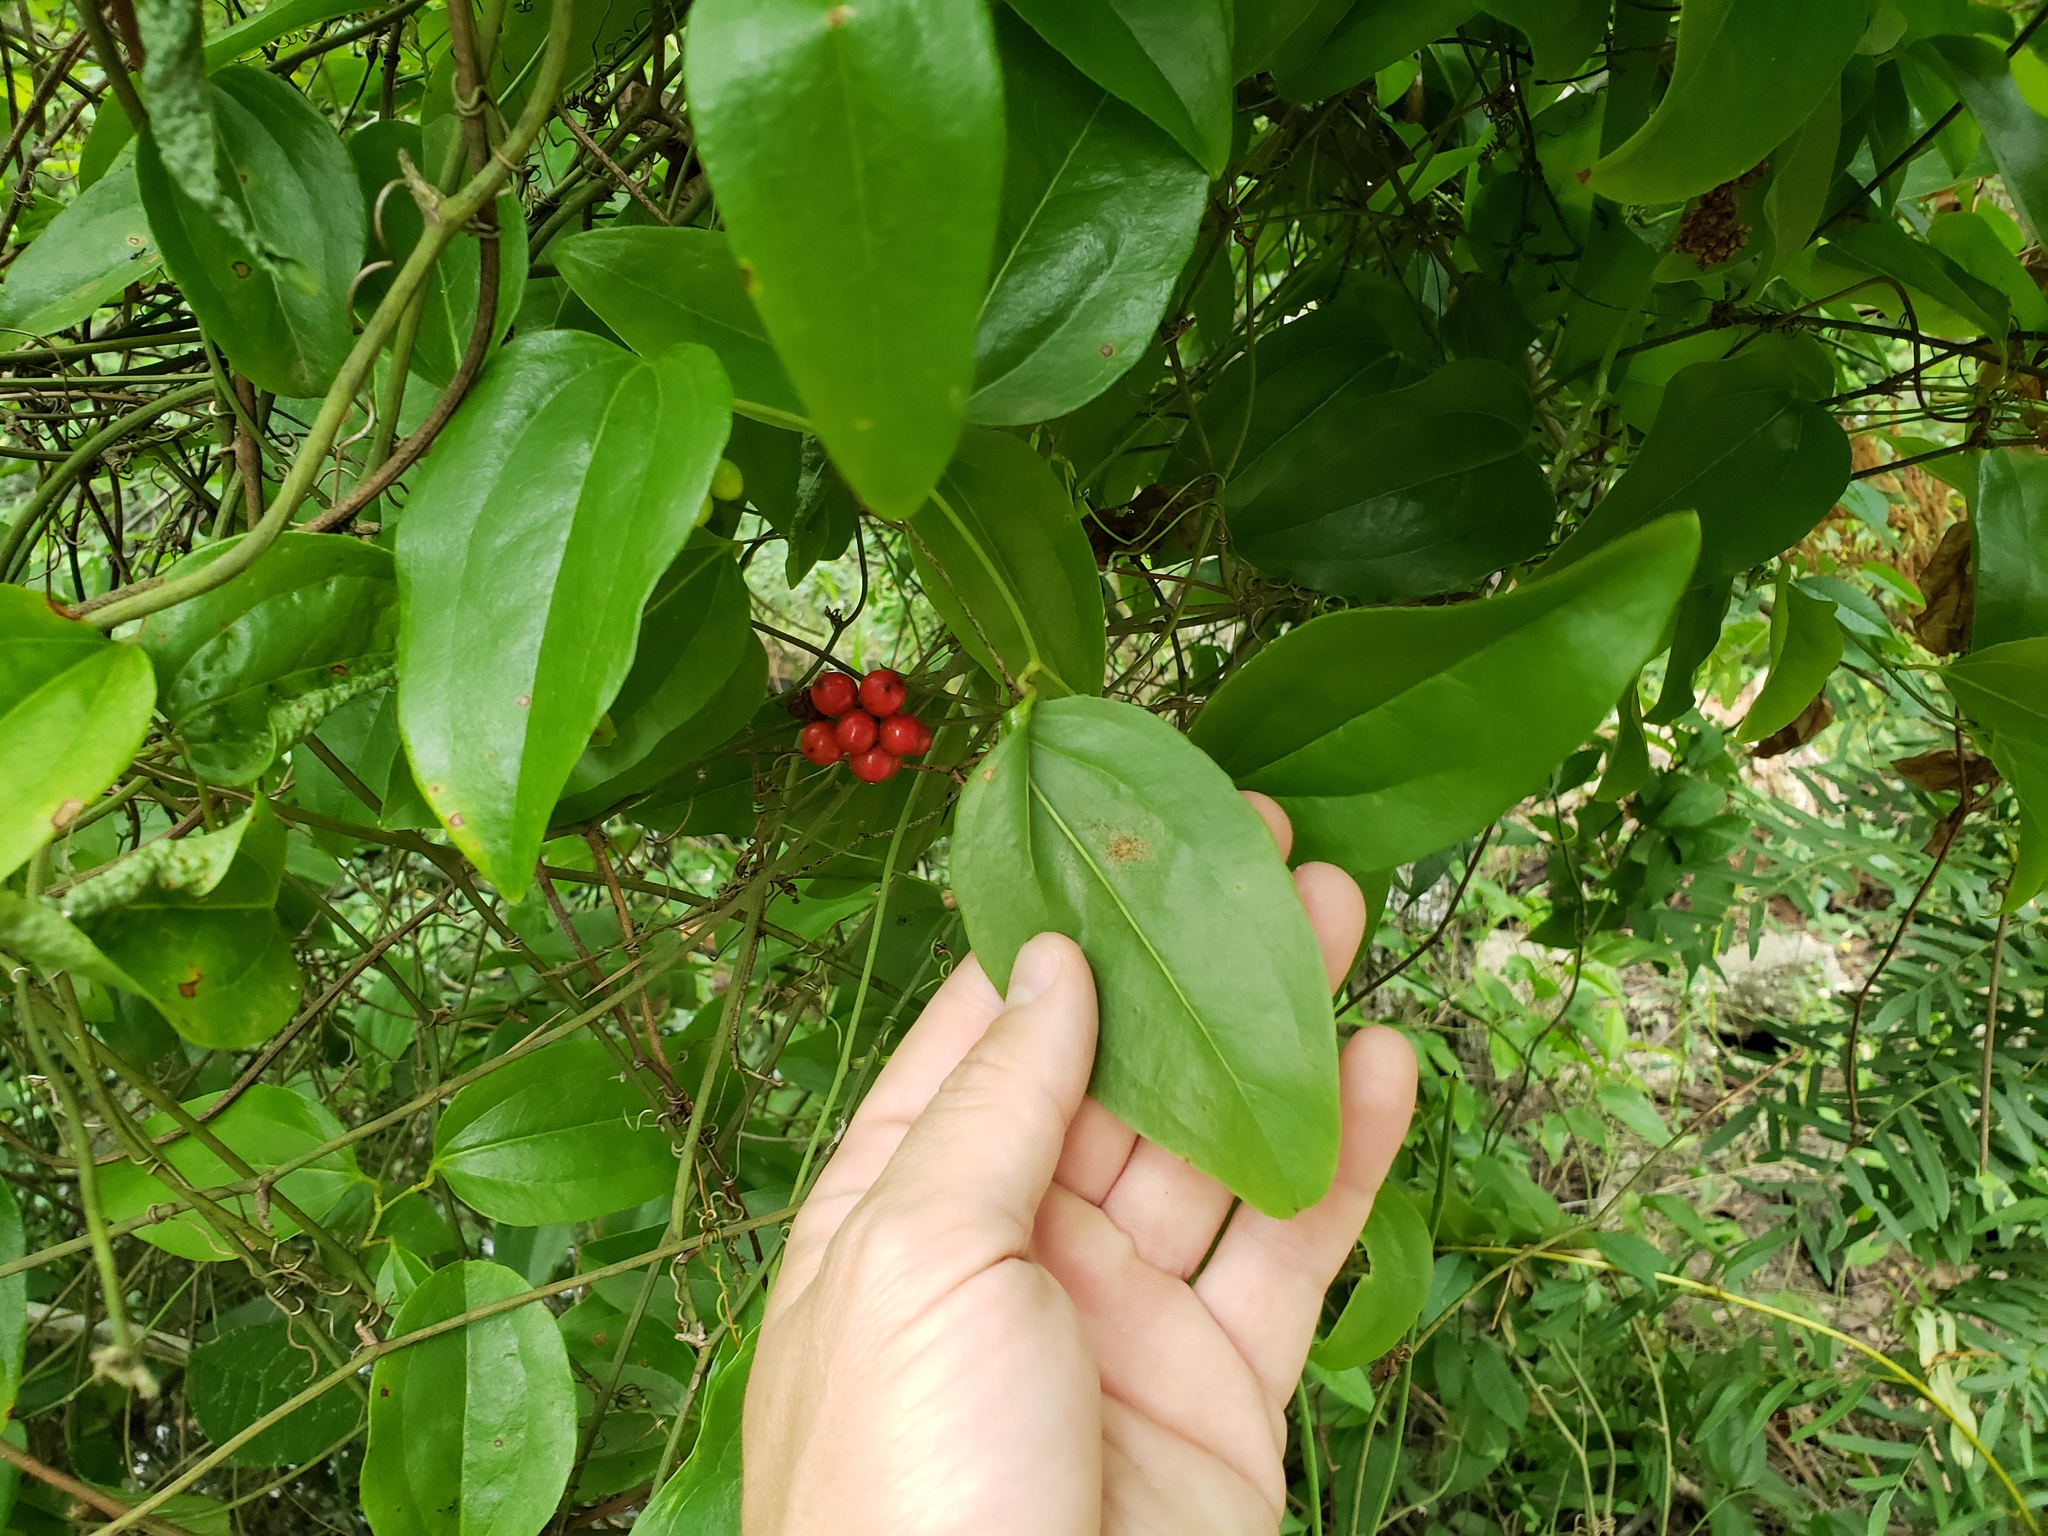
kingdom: Plantae
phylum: Tracheophyta
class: Liliopsida
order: Liliales
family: Smilacaceae
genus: Smilax
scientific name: Smilax walteri
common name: Coral greenbrier
